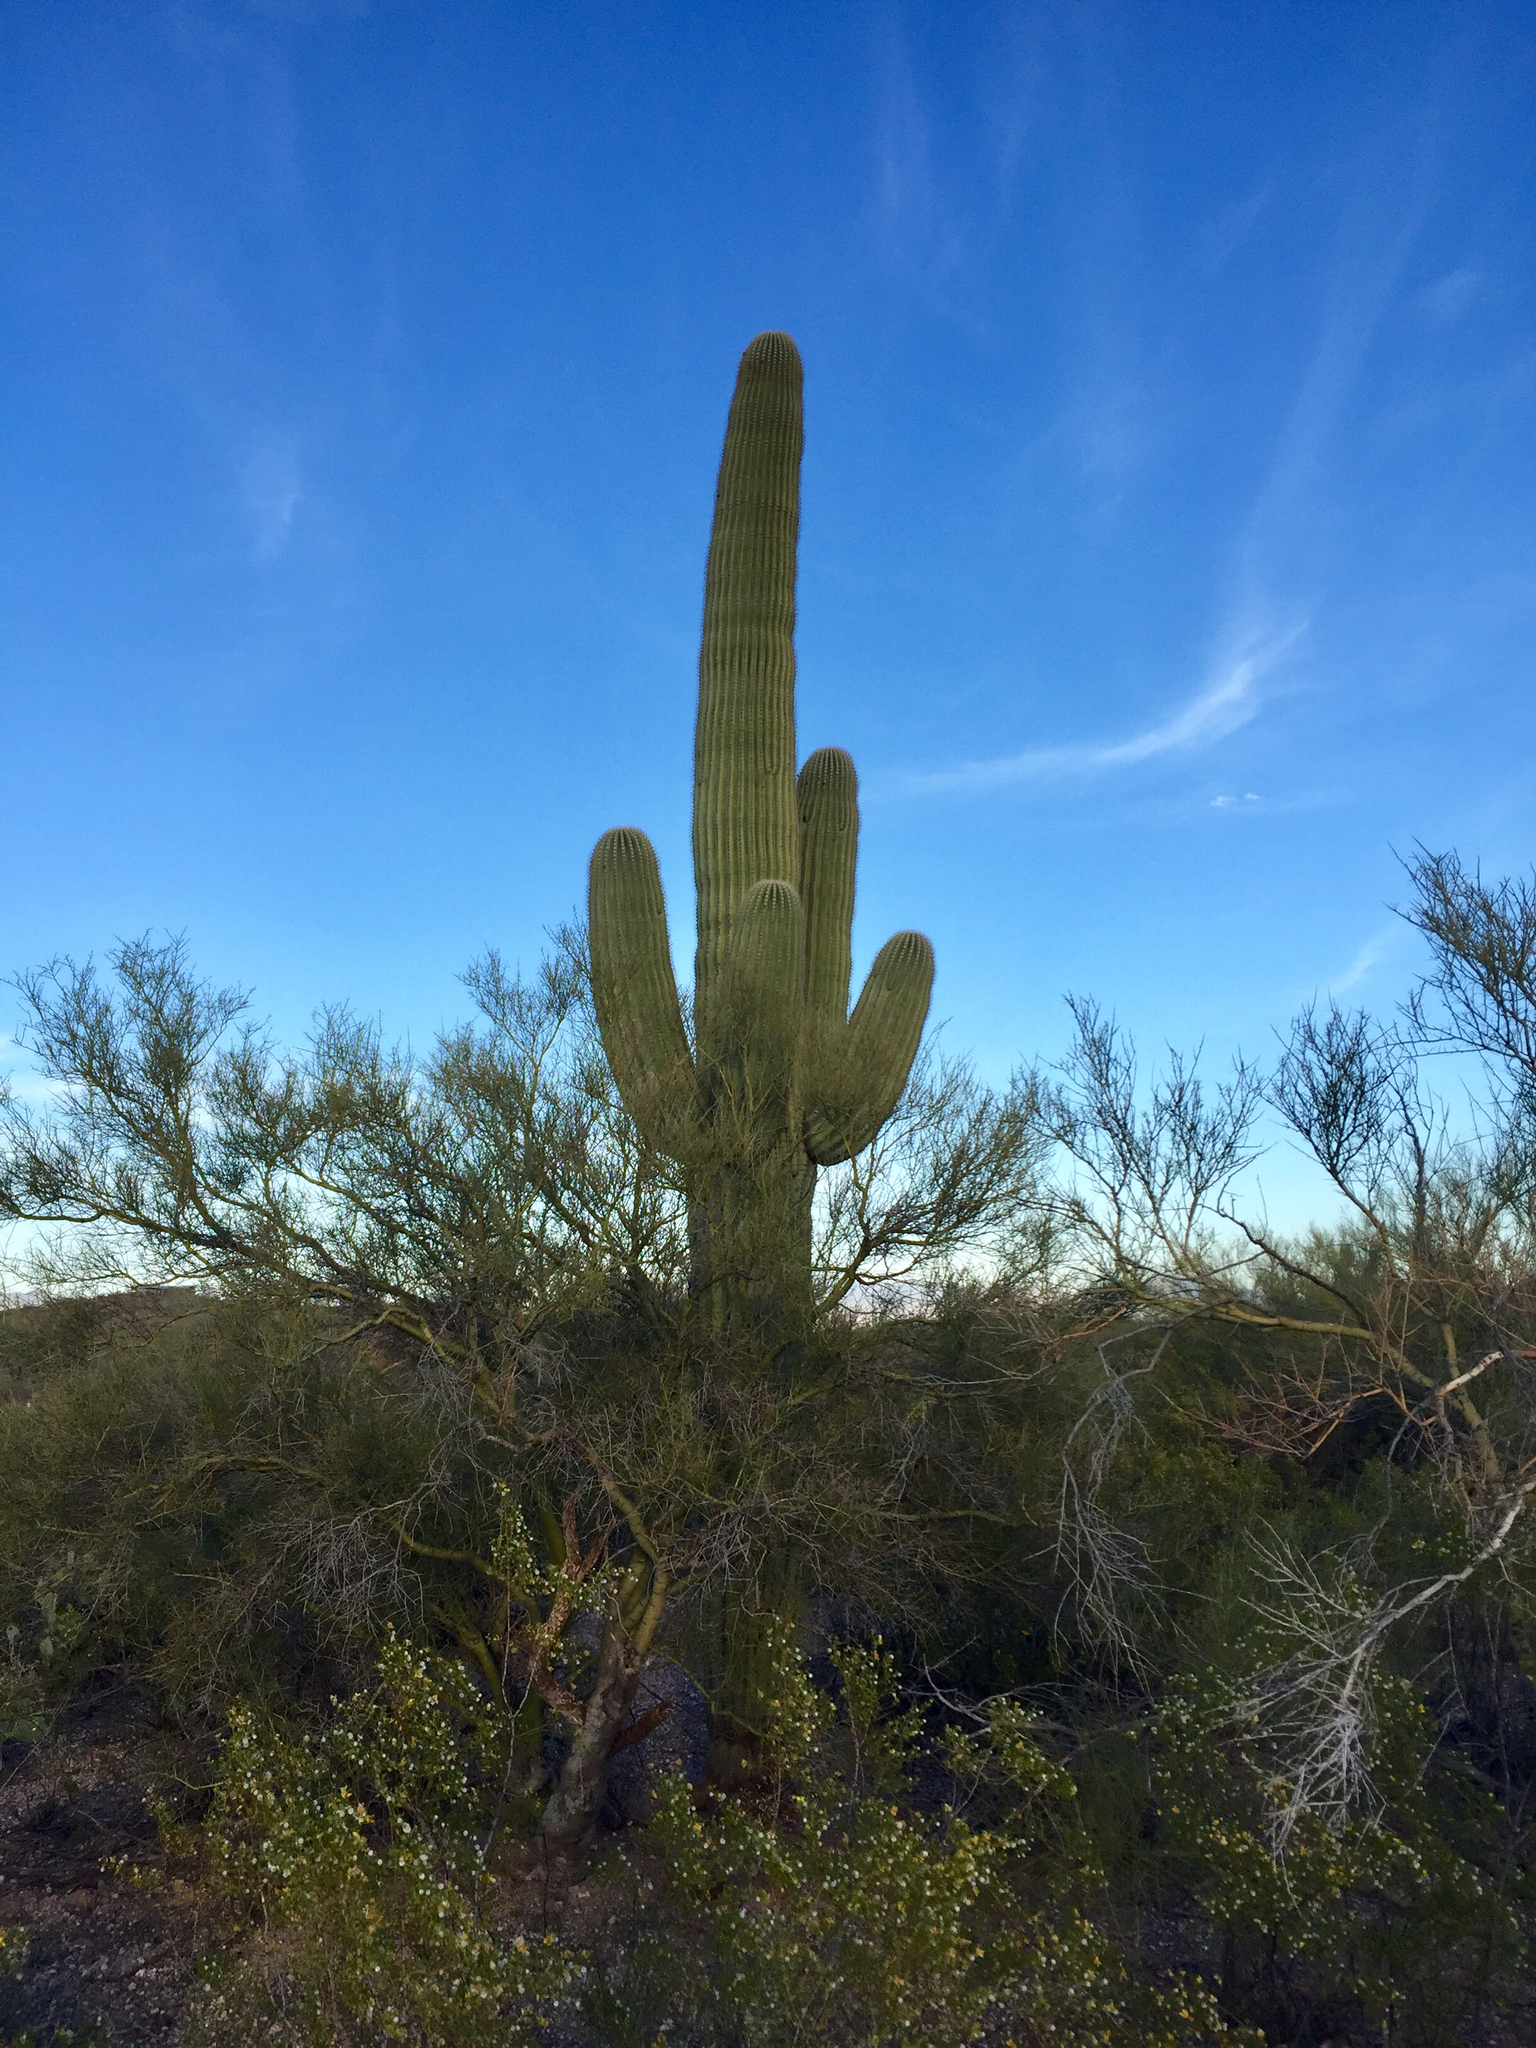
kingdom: Plantae
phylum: Tracheophyta
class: Magnoliopsida
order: Fabales
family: Fabaceae
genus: Parkinsonia
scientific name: Parkinsonia microphylla
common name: Yellow paloverde
